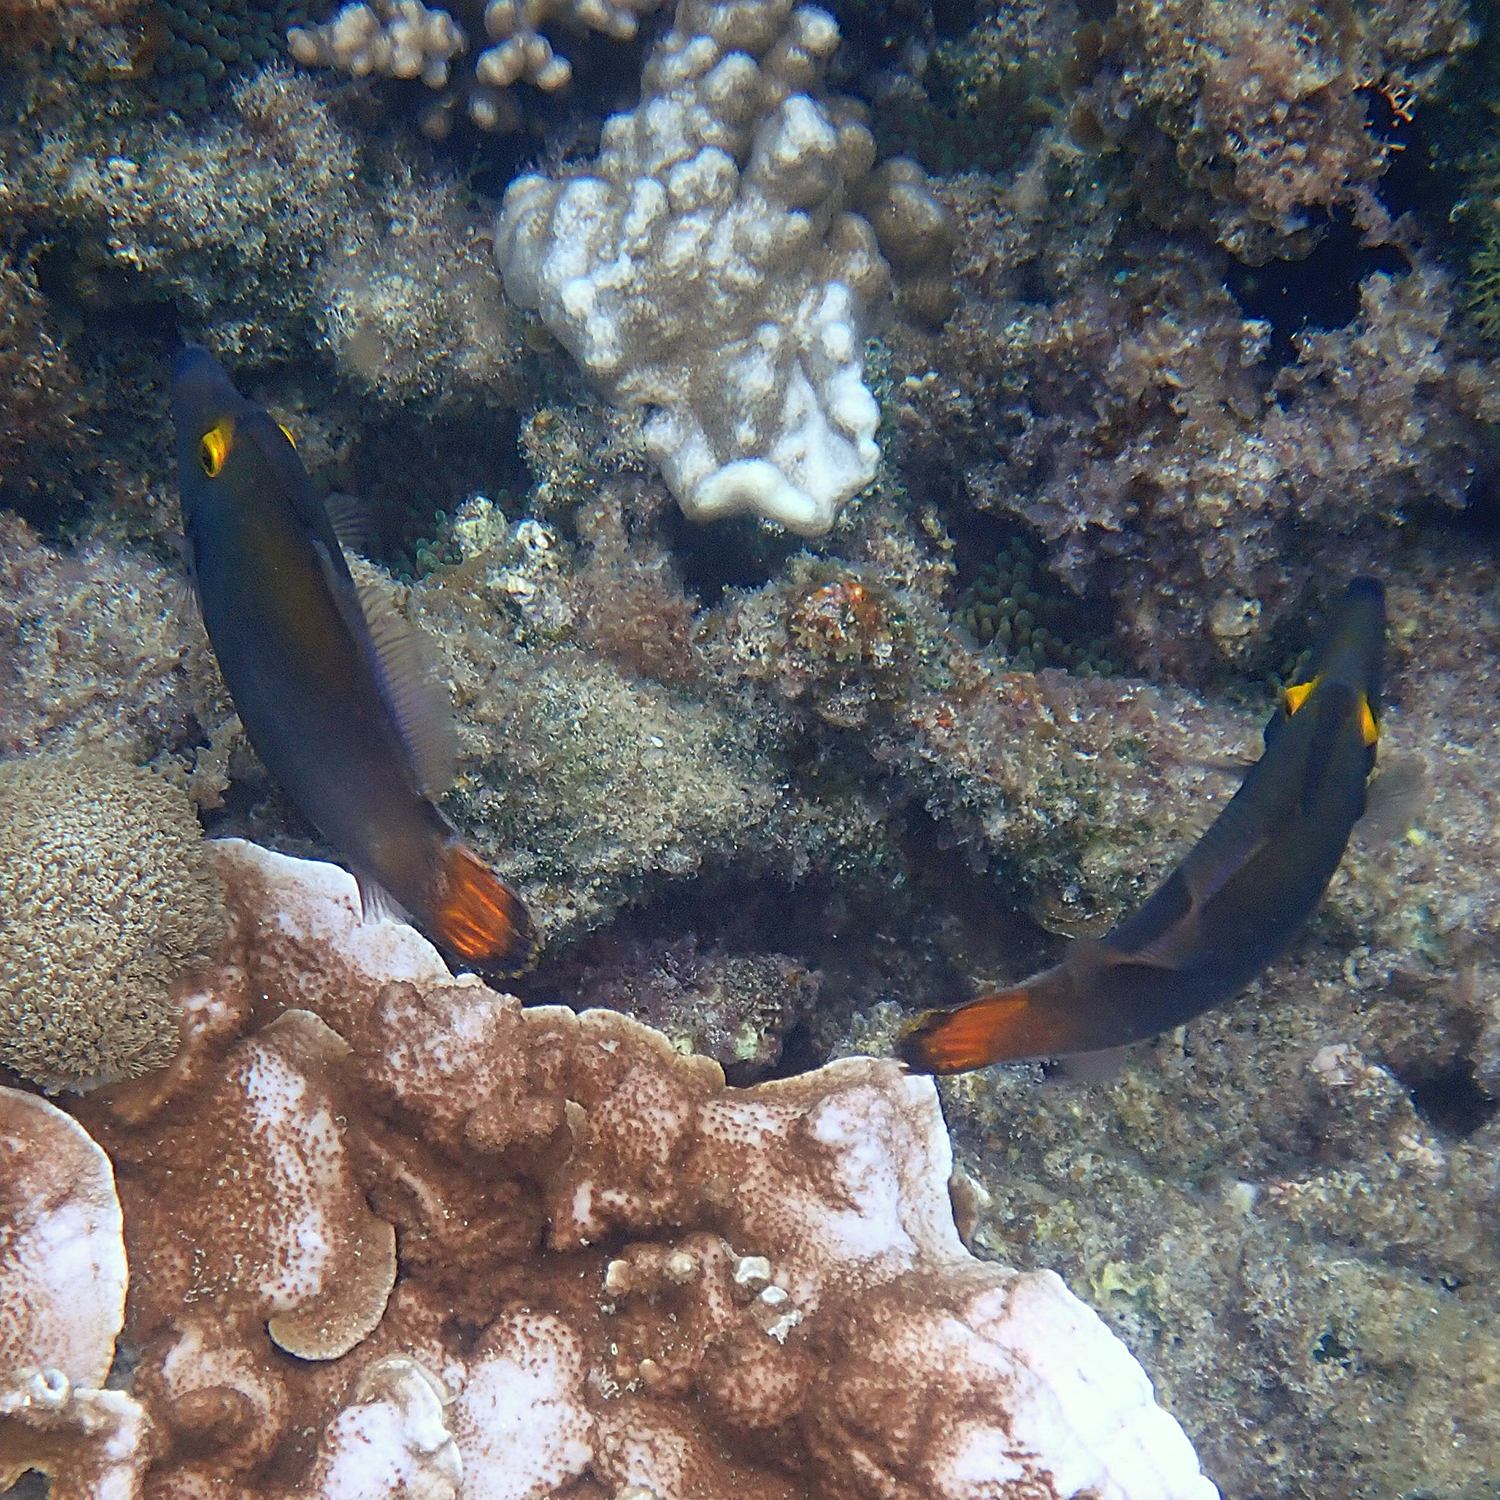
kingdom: Animalia
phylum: Chordata
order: Tetraodontiformes
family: Monacanthidae
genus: Pervagor
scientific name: Pervagor alternans
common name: Yelloweye filefish
